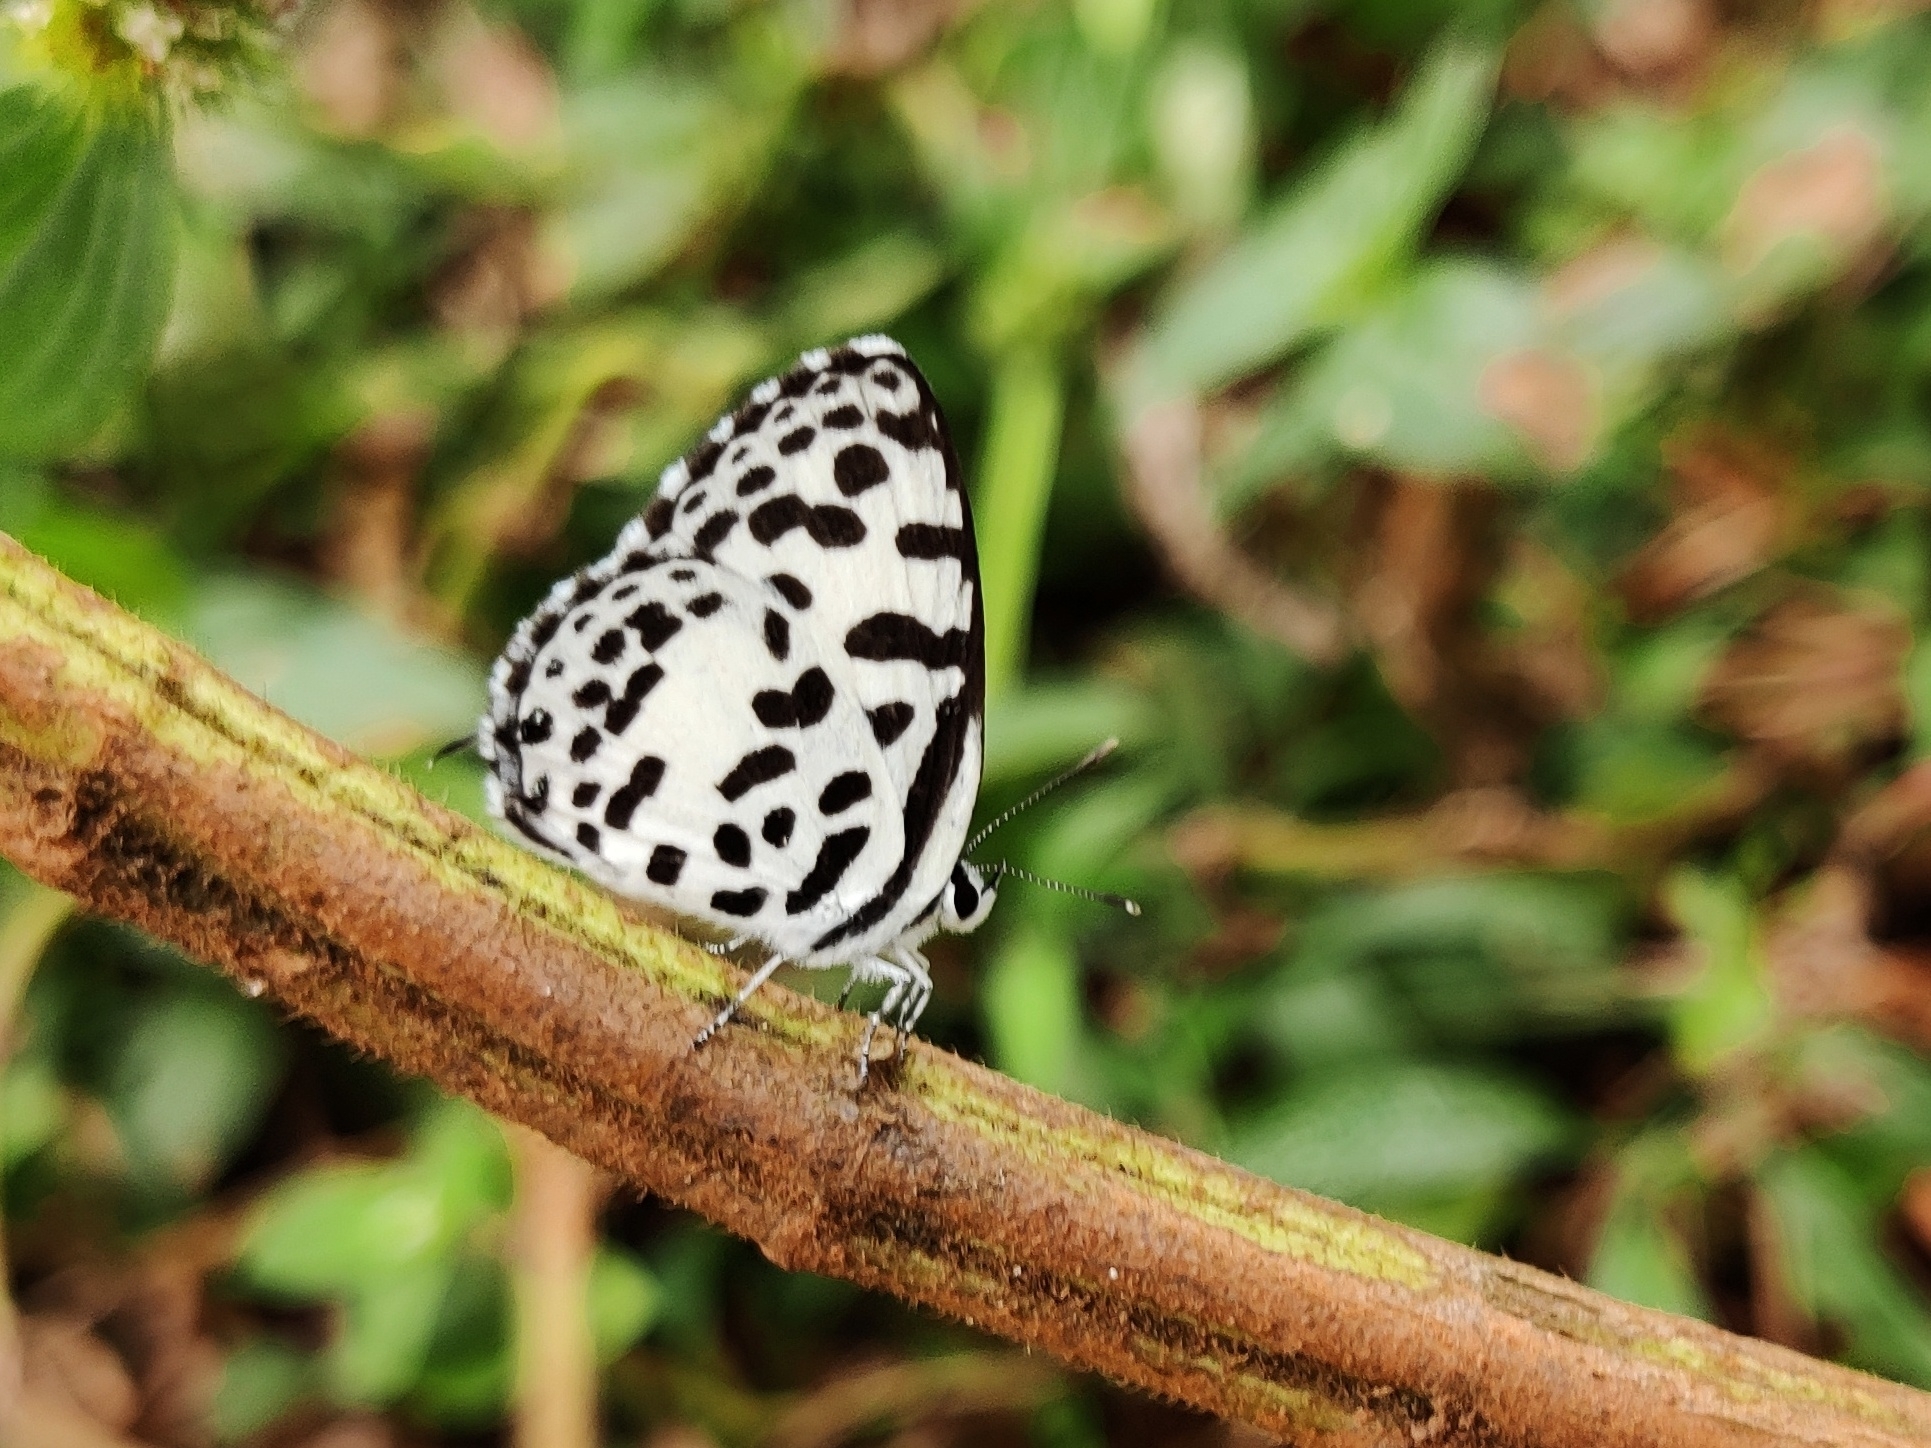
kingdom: Animalia
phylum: Arthropoda
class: Insecta
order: Lepidoptera
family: Lycaenidae
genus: Castalius
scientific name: Castalius rosimon
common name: Common pierrot
